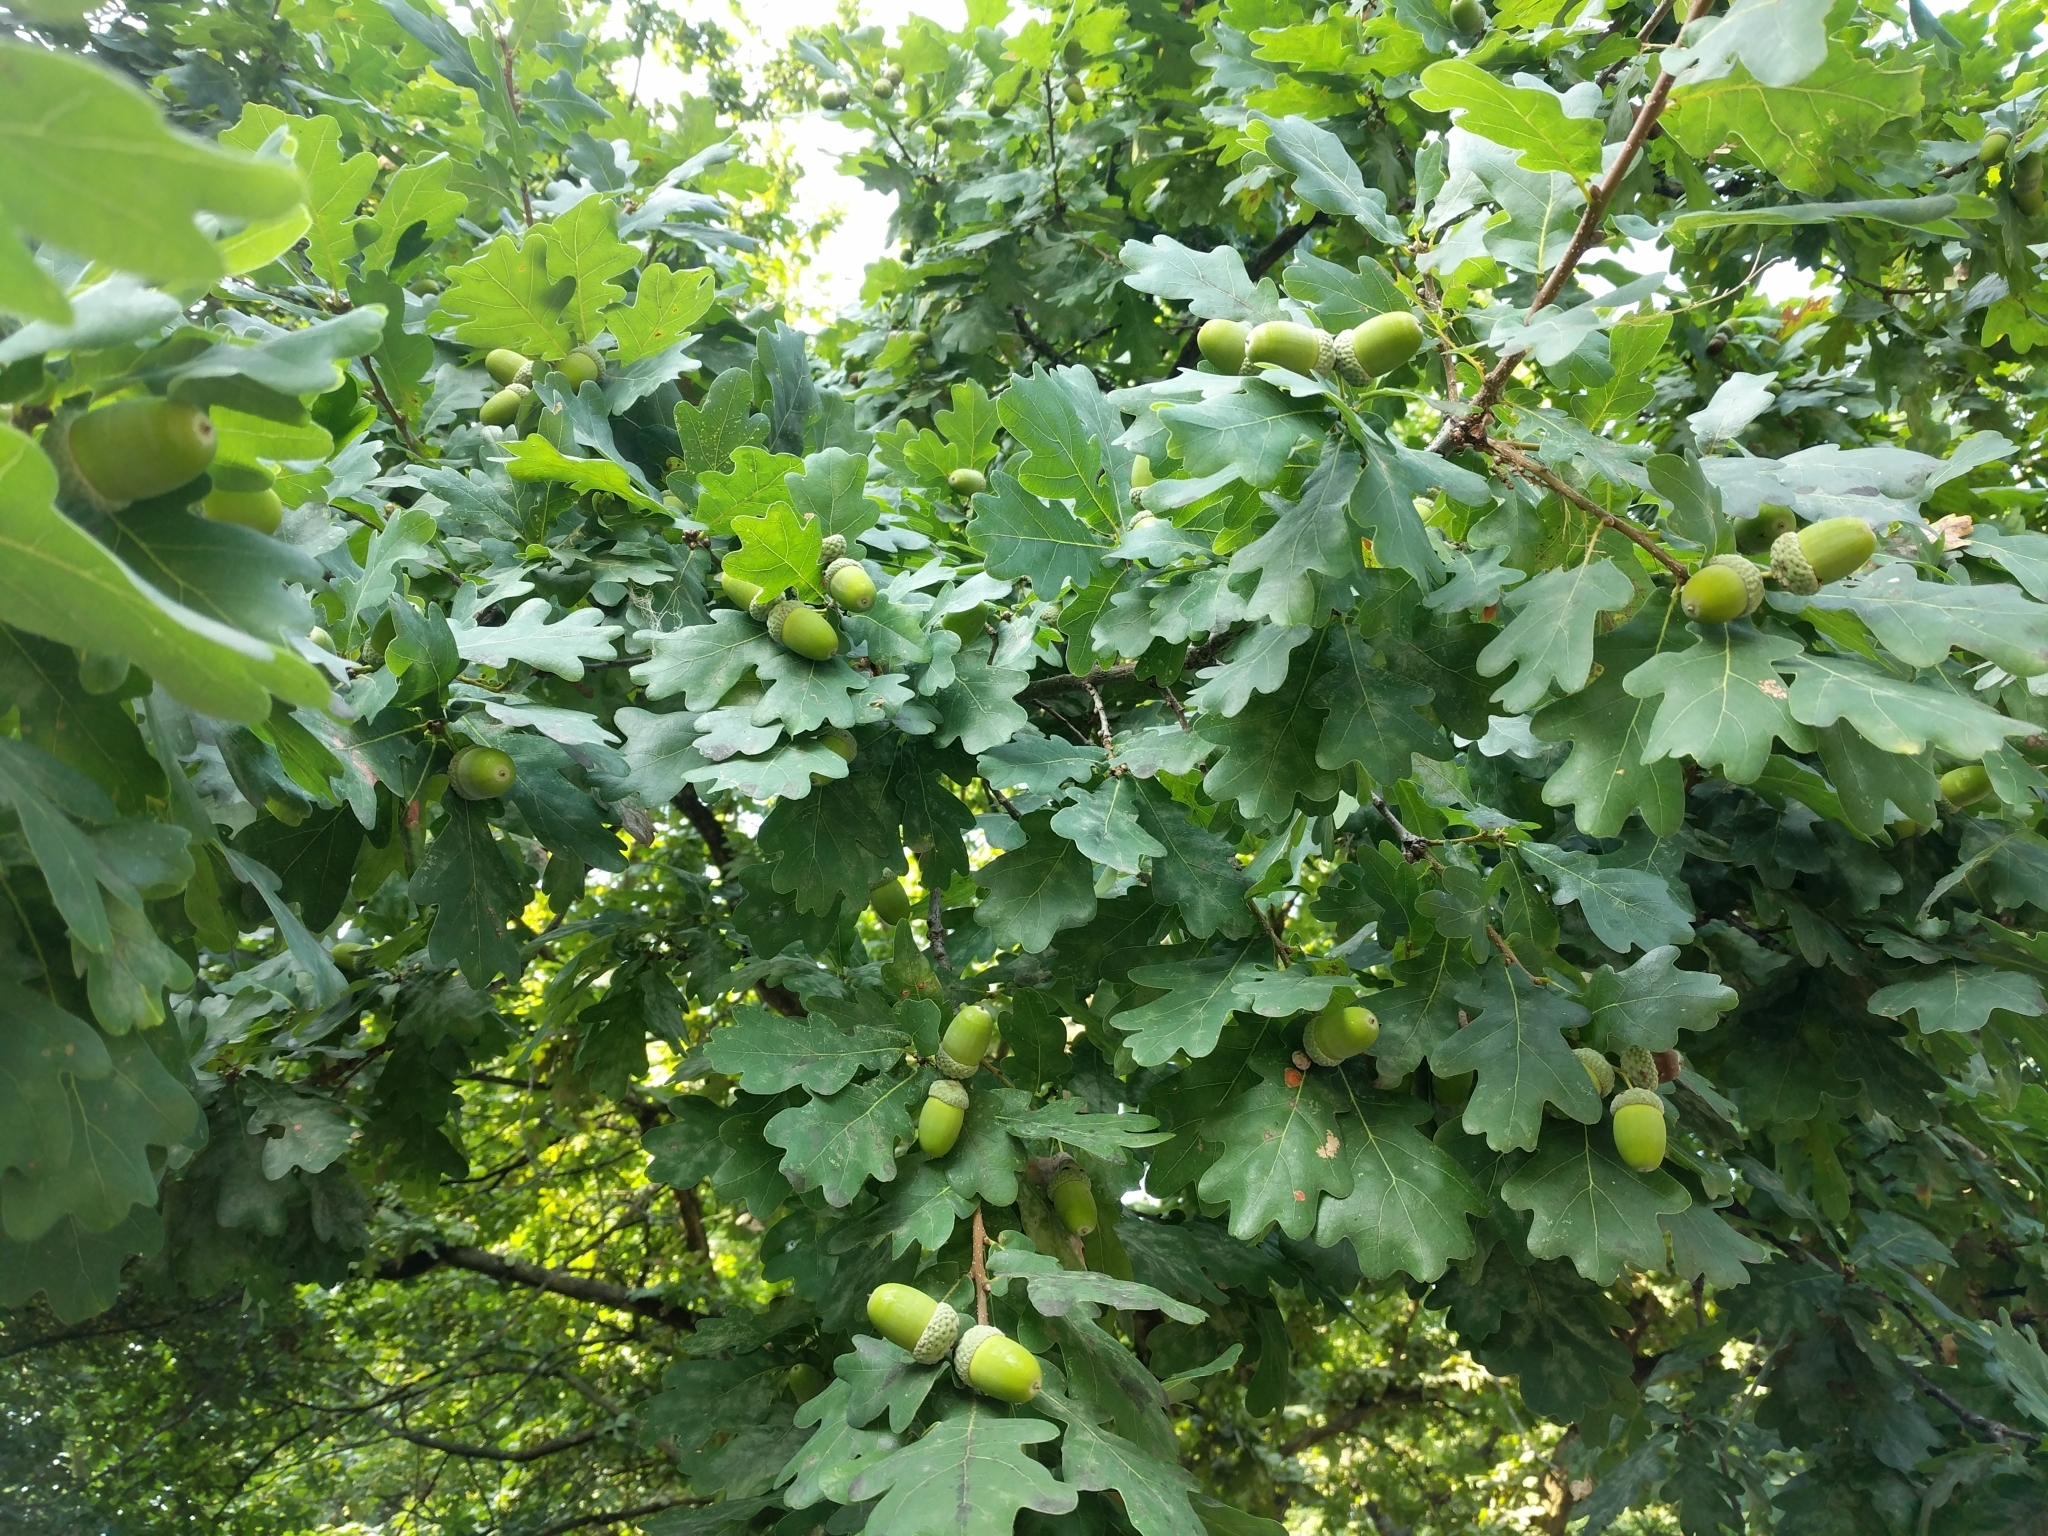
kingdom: Plantae
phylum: Tracheophyta
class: Magnoliopsida
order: Fagales
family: Fagaceae
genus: Quercus
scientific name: Quercus robur
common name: Pedunculate oak
